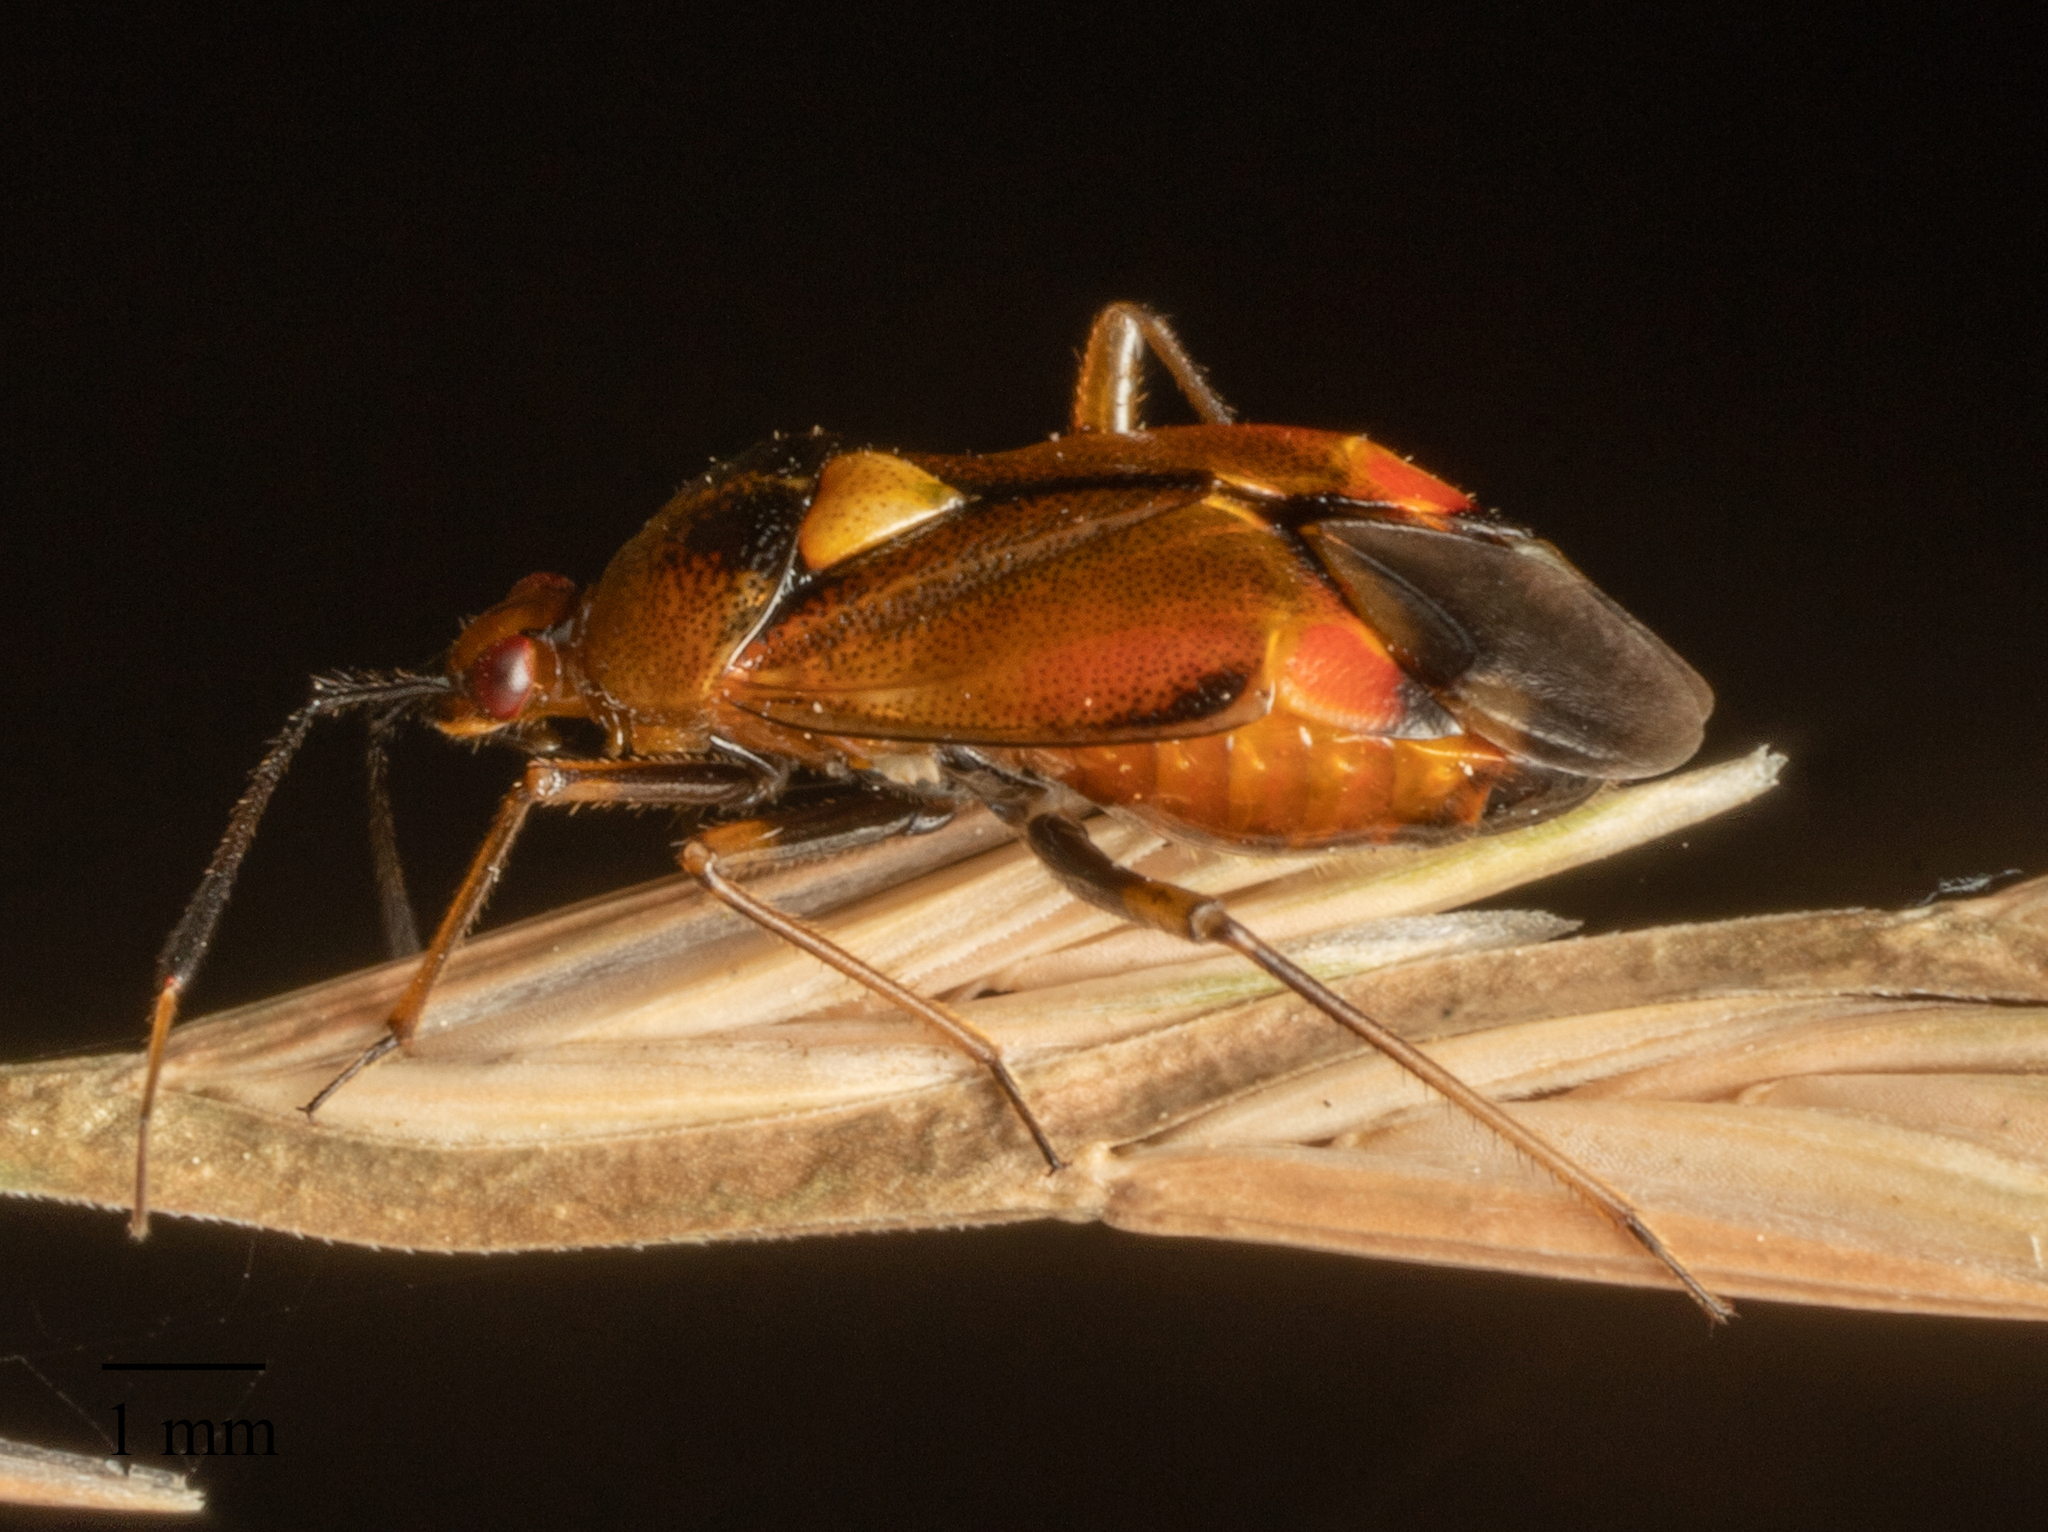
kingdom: Animalia
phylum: Arthropoda
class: Insecta
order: Hemiptera
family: Miridae
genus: Deraeocoris
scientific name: Deraeocoris ruber
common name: Plant bug
